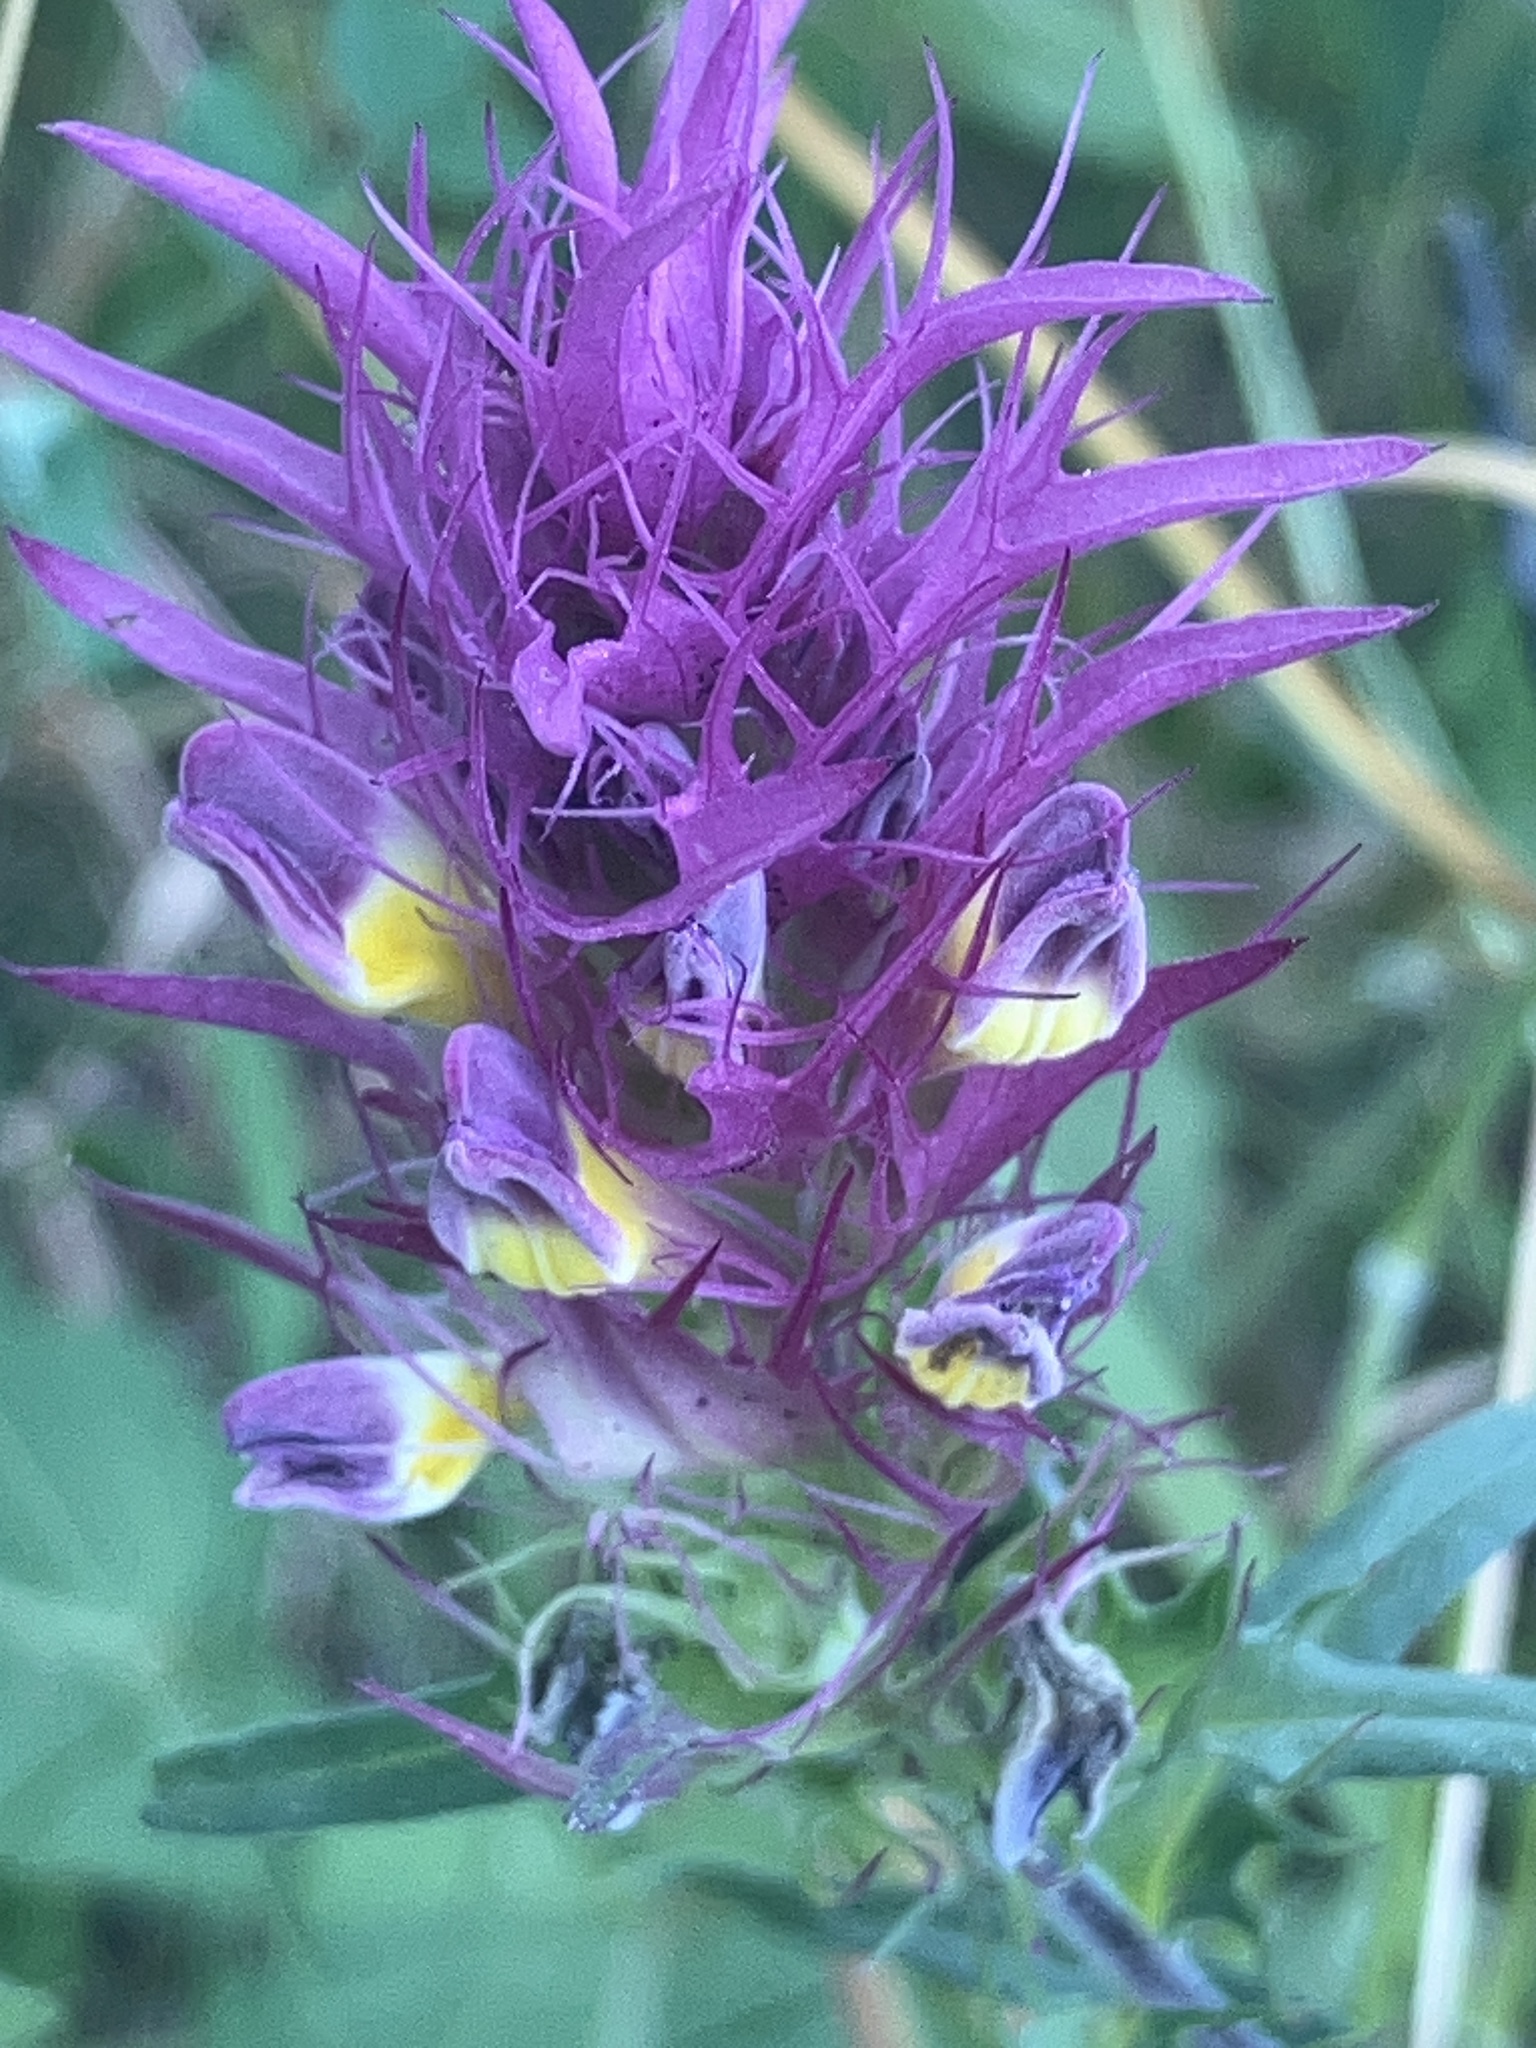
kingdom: Plantae
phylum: Tracheophyta
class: Magnoliopsida
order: Lamiales
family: Orobanchaceae
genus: Melampyrum
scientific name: Melampyrum arvense
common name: Field cow-wheat
